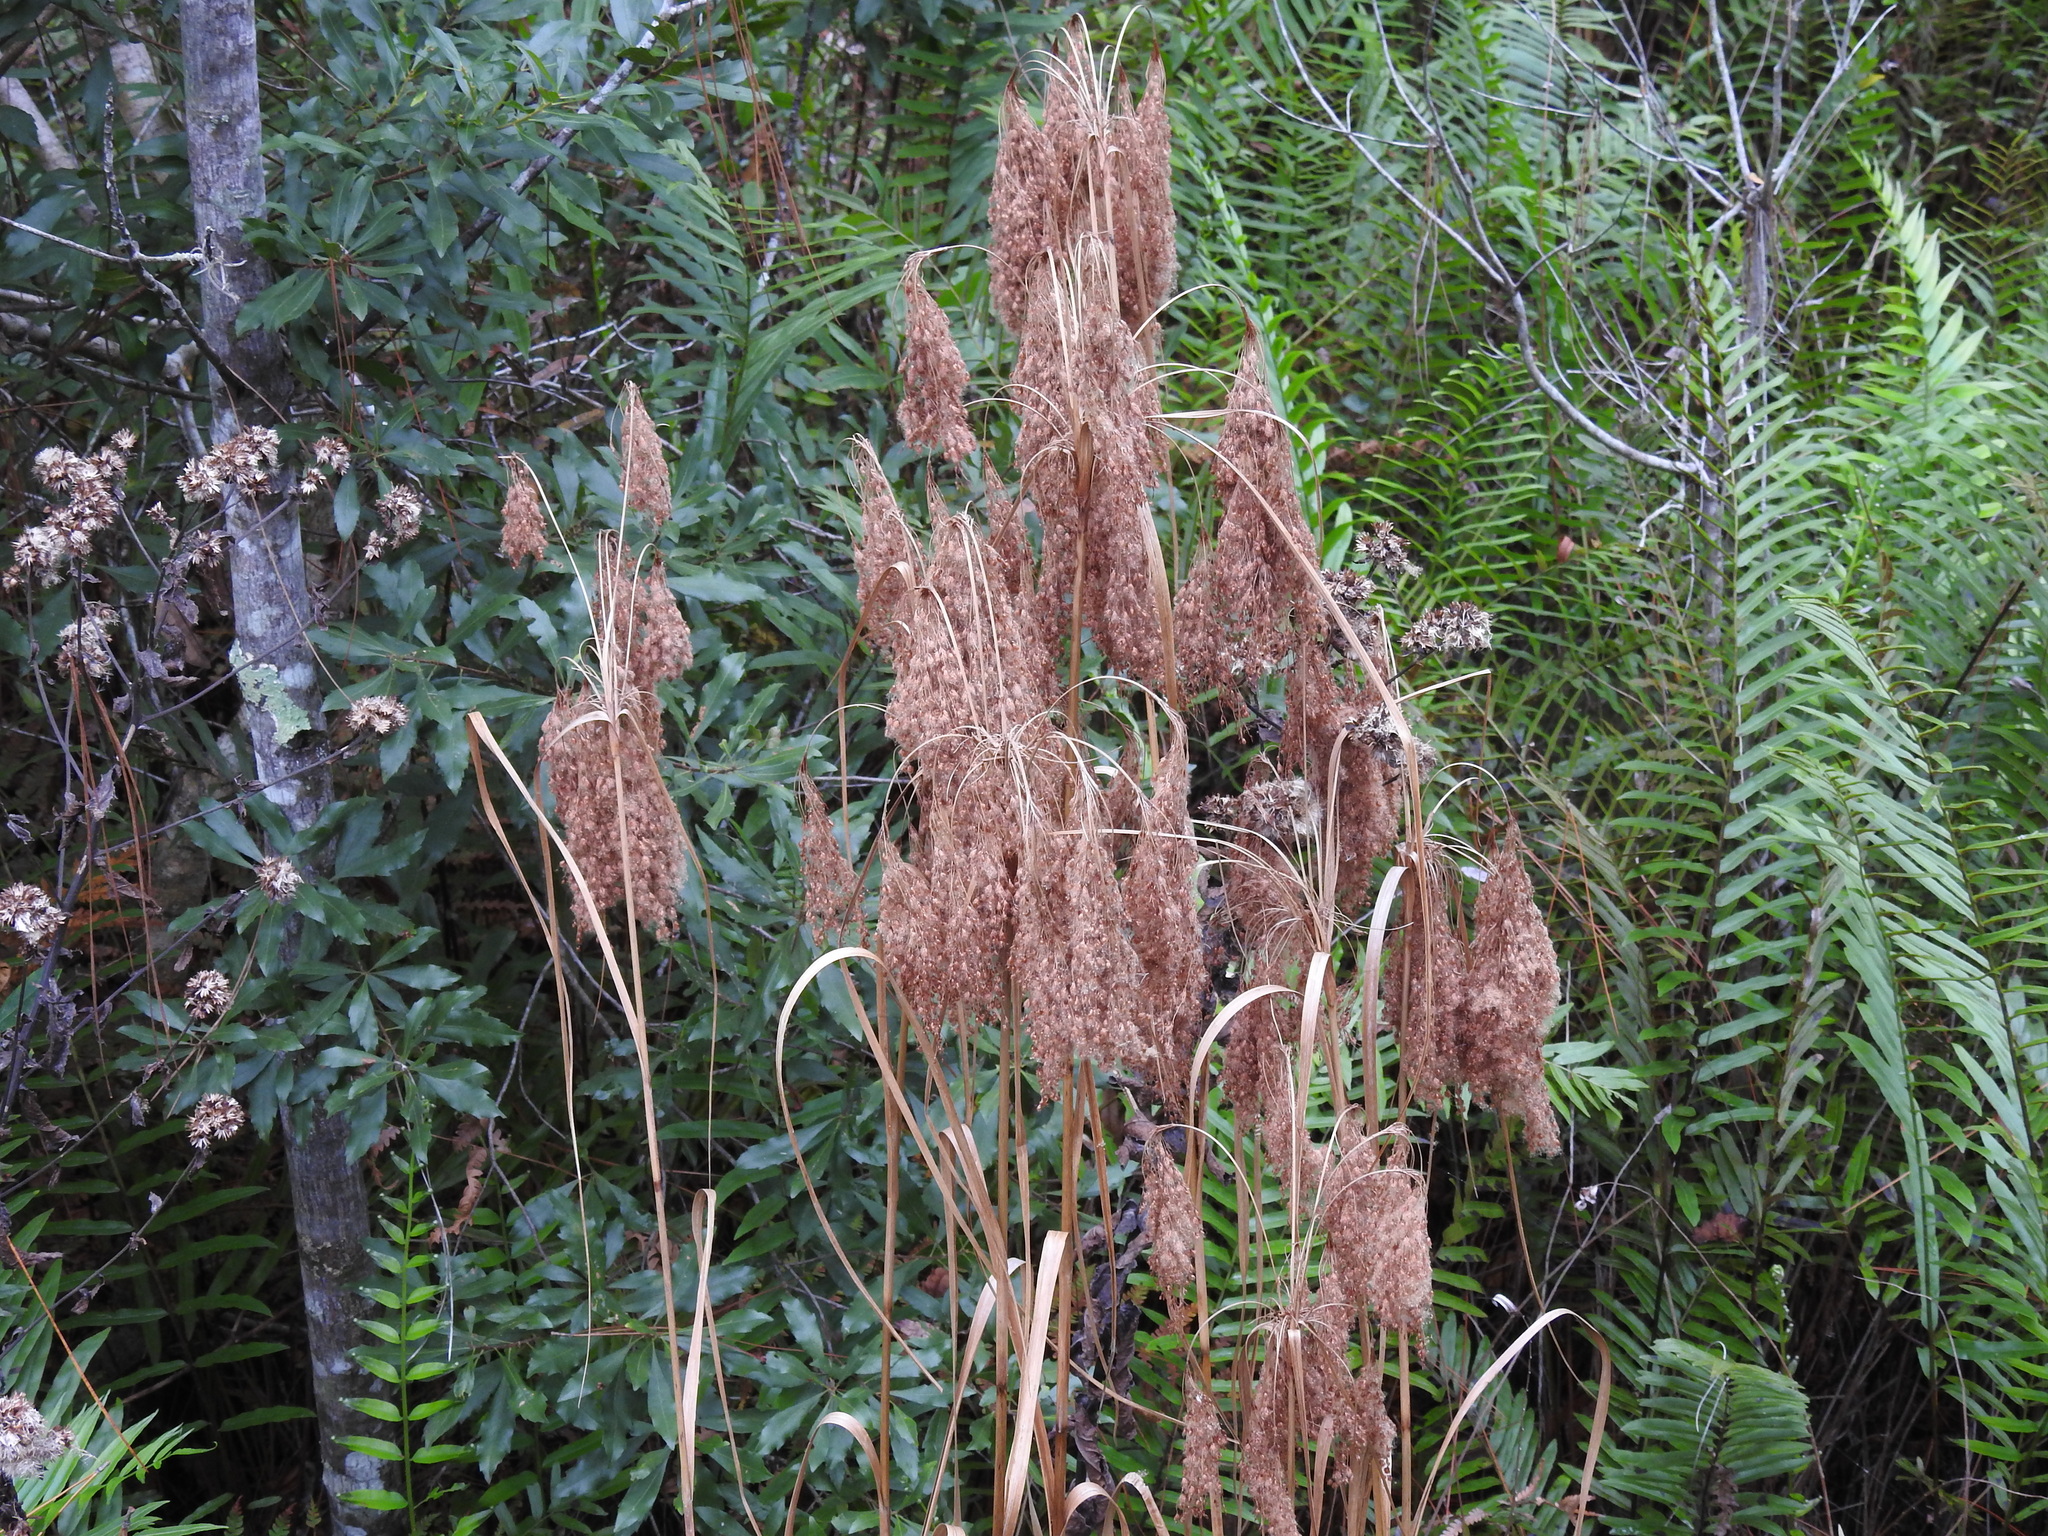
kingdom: Plantae
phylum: Tracheophyta
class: Liliopsida
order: Poales
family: Cyperaceae
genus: Scirpus
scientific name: Scirpus cyperinus
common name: Black-sheathed bulrush
